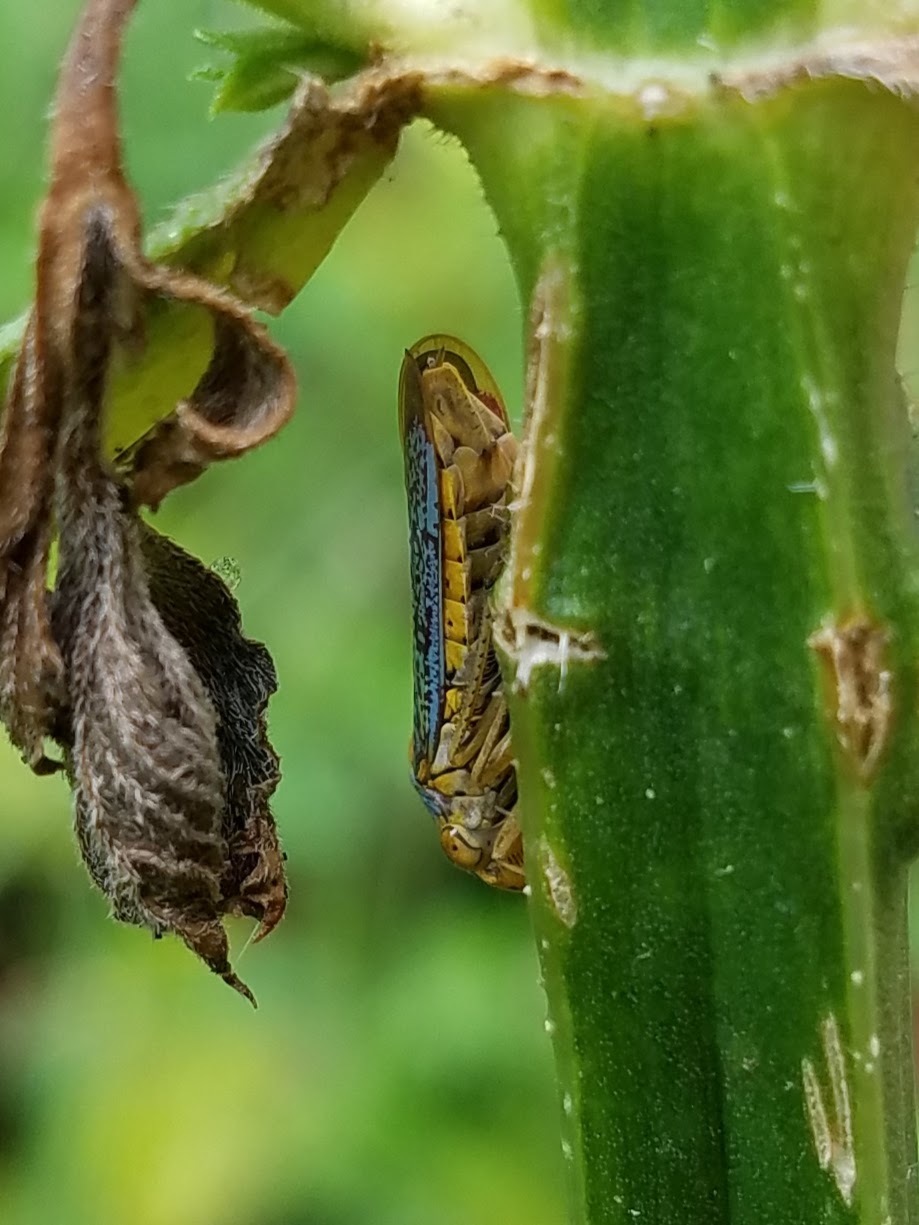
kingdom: Animalia
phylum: Arthropoda
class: Insecta
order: Hemiptera
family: Cicadellidae
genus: Oncometopia
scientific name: Oncometopia orbona
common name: Broad-headed sharpshooter
